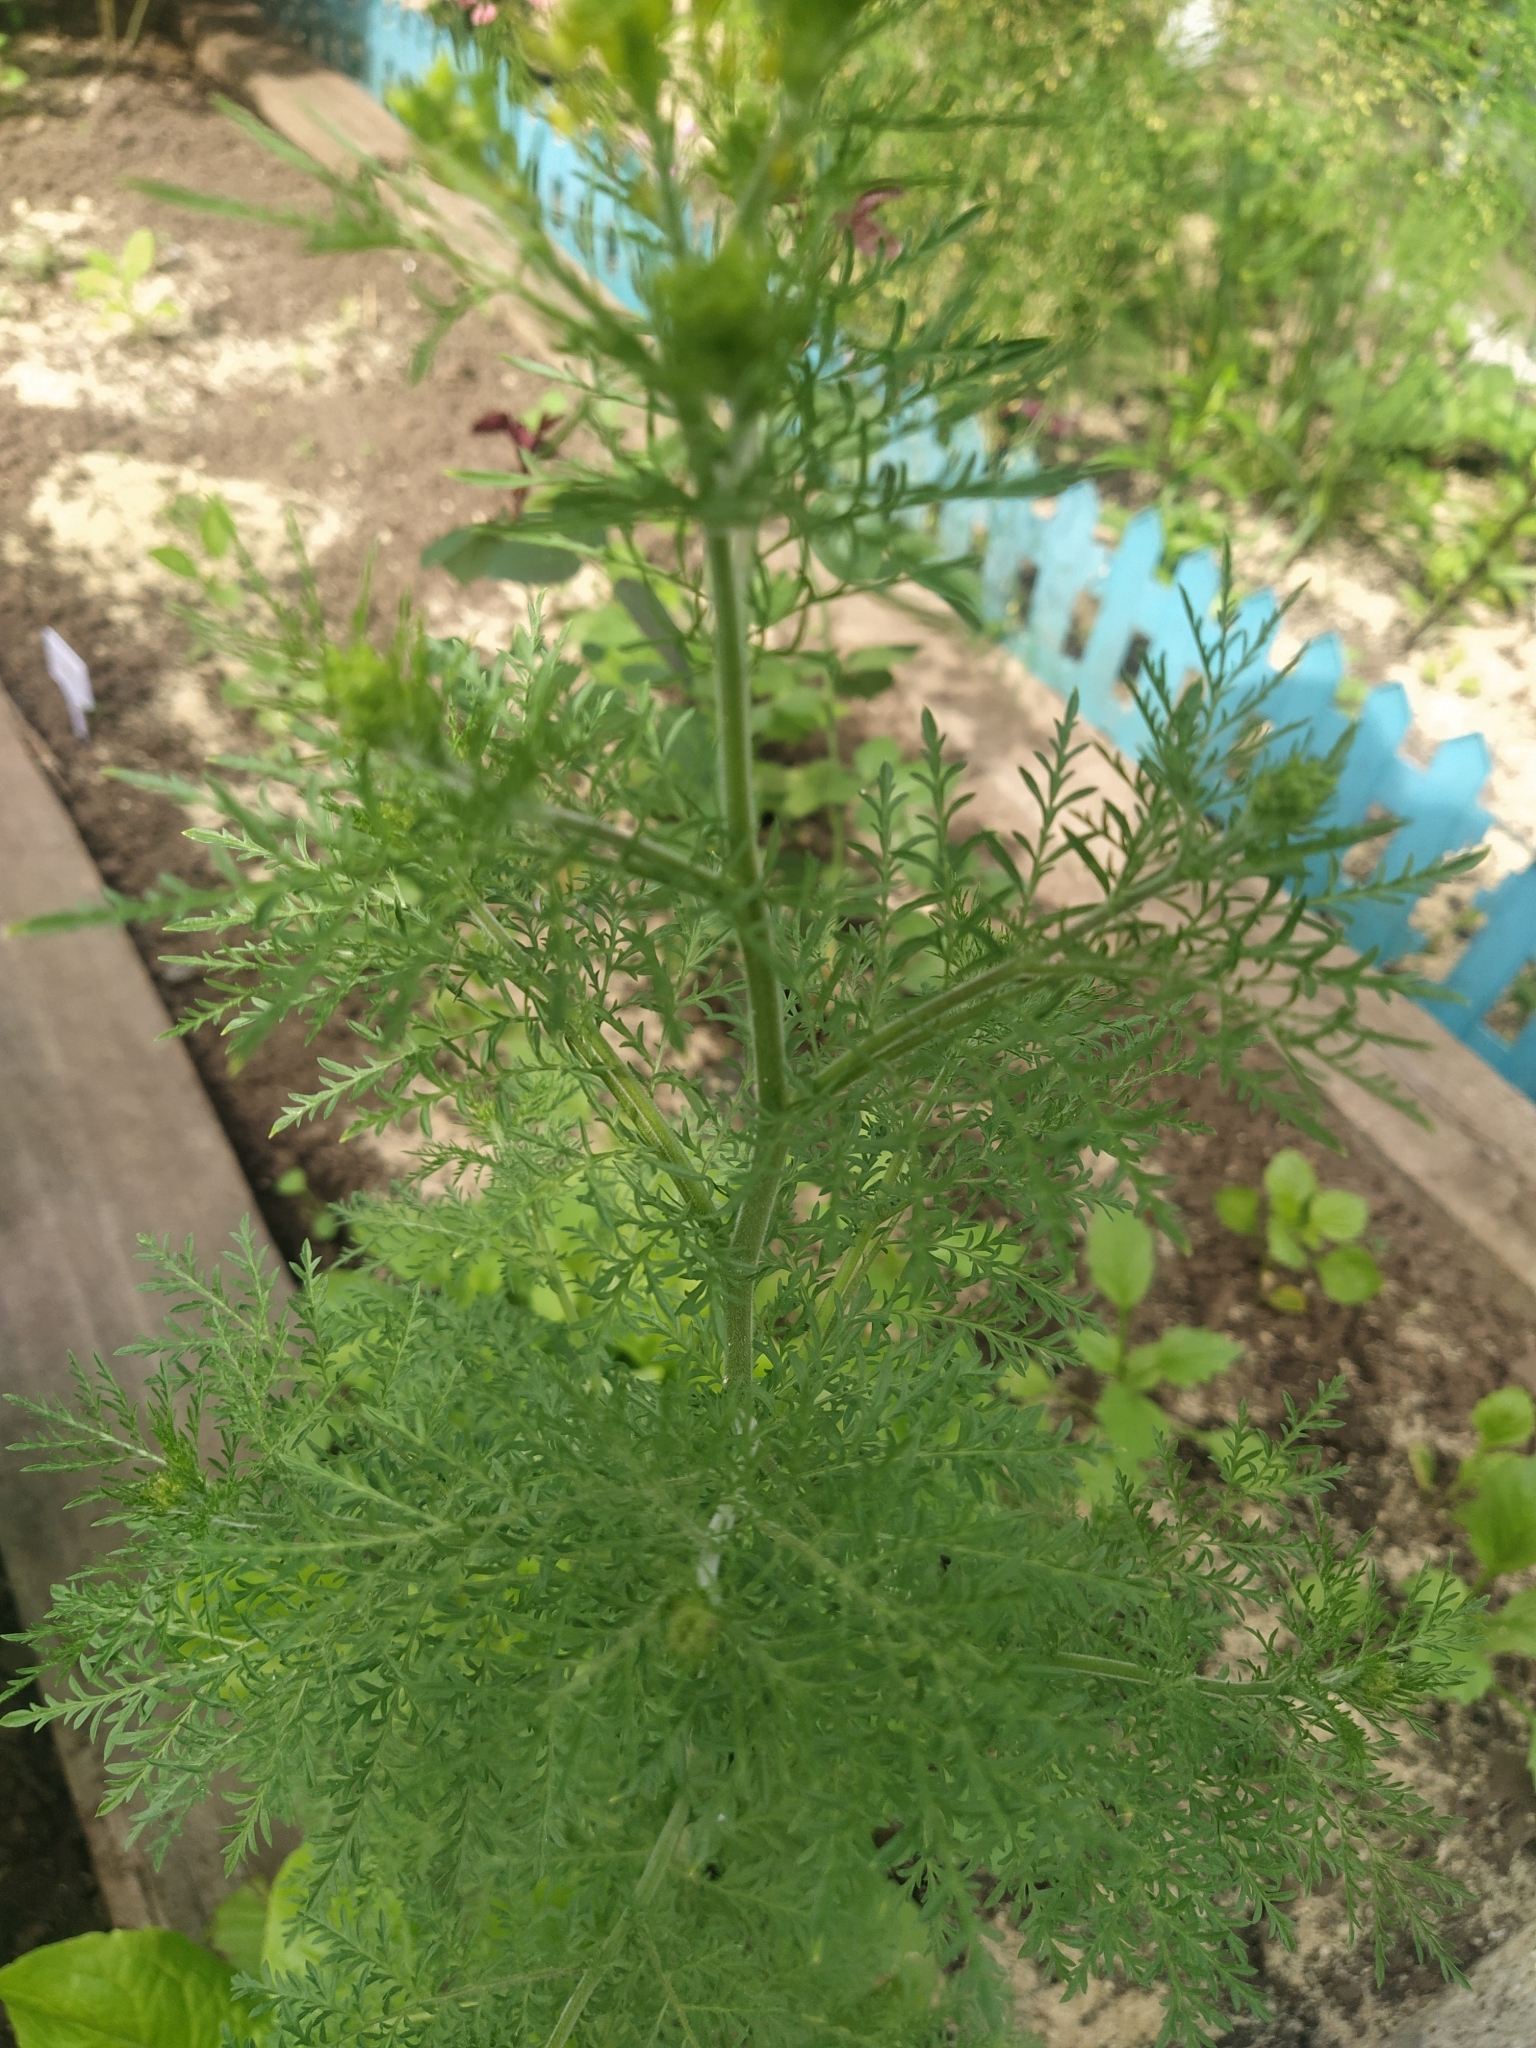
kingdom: Plantae
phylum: Tracheophyta
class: Magnoliopsida
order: Brassicales
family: Brassicaceae
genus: Descurainia
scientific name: Descurainia sophia
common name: Flixweed
